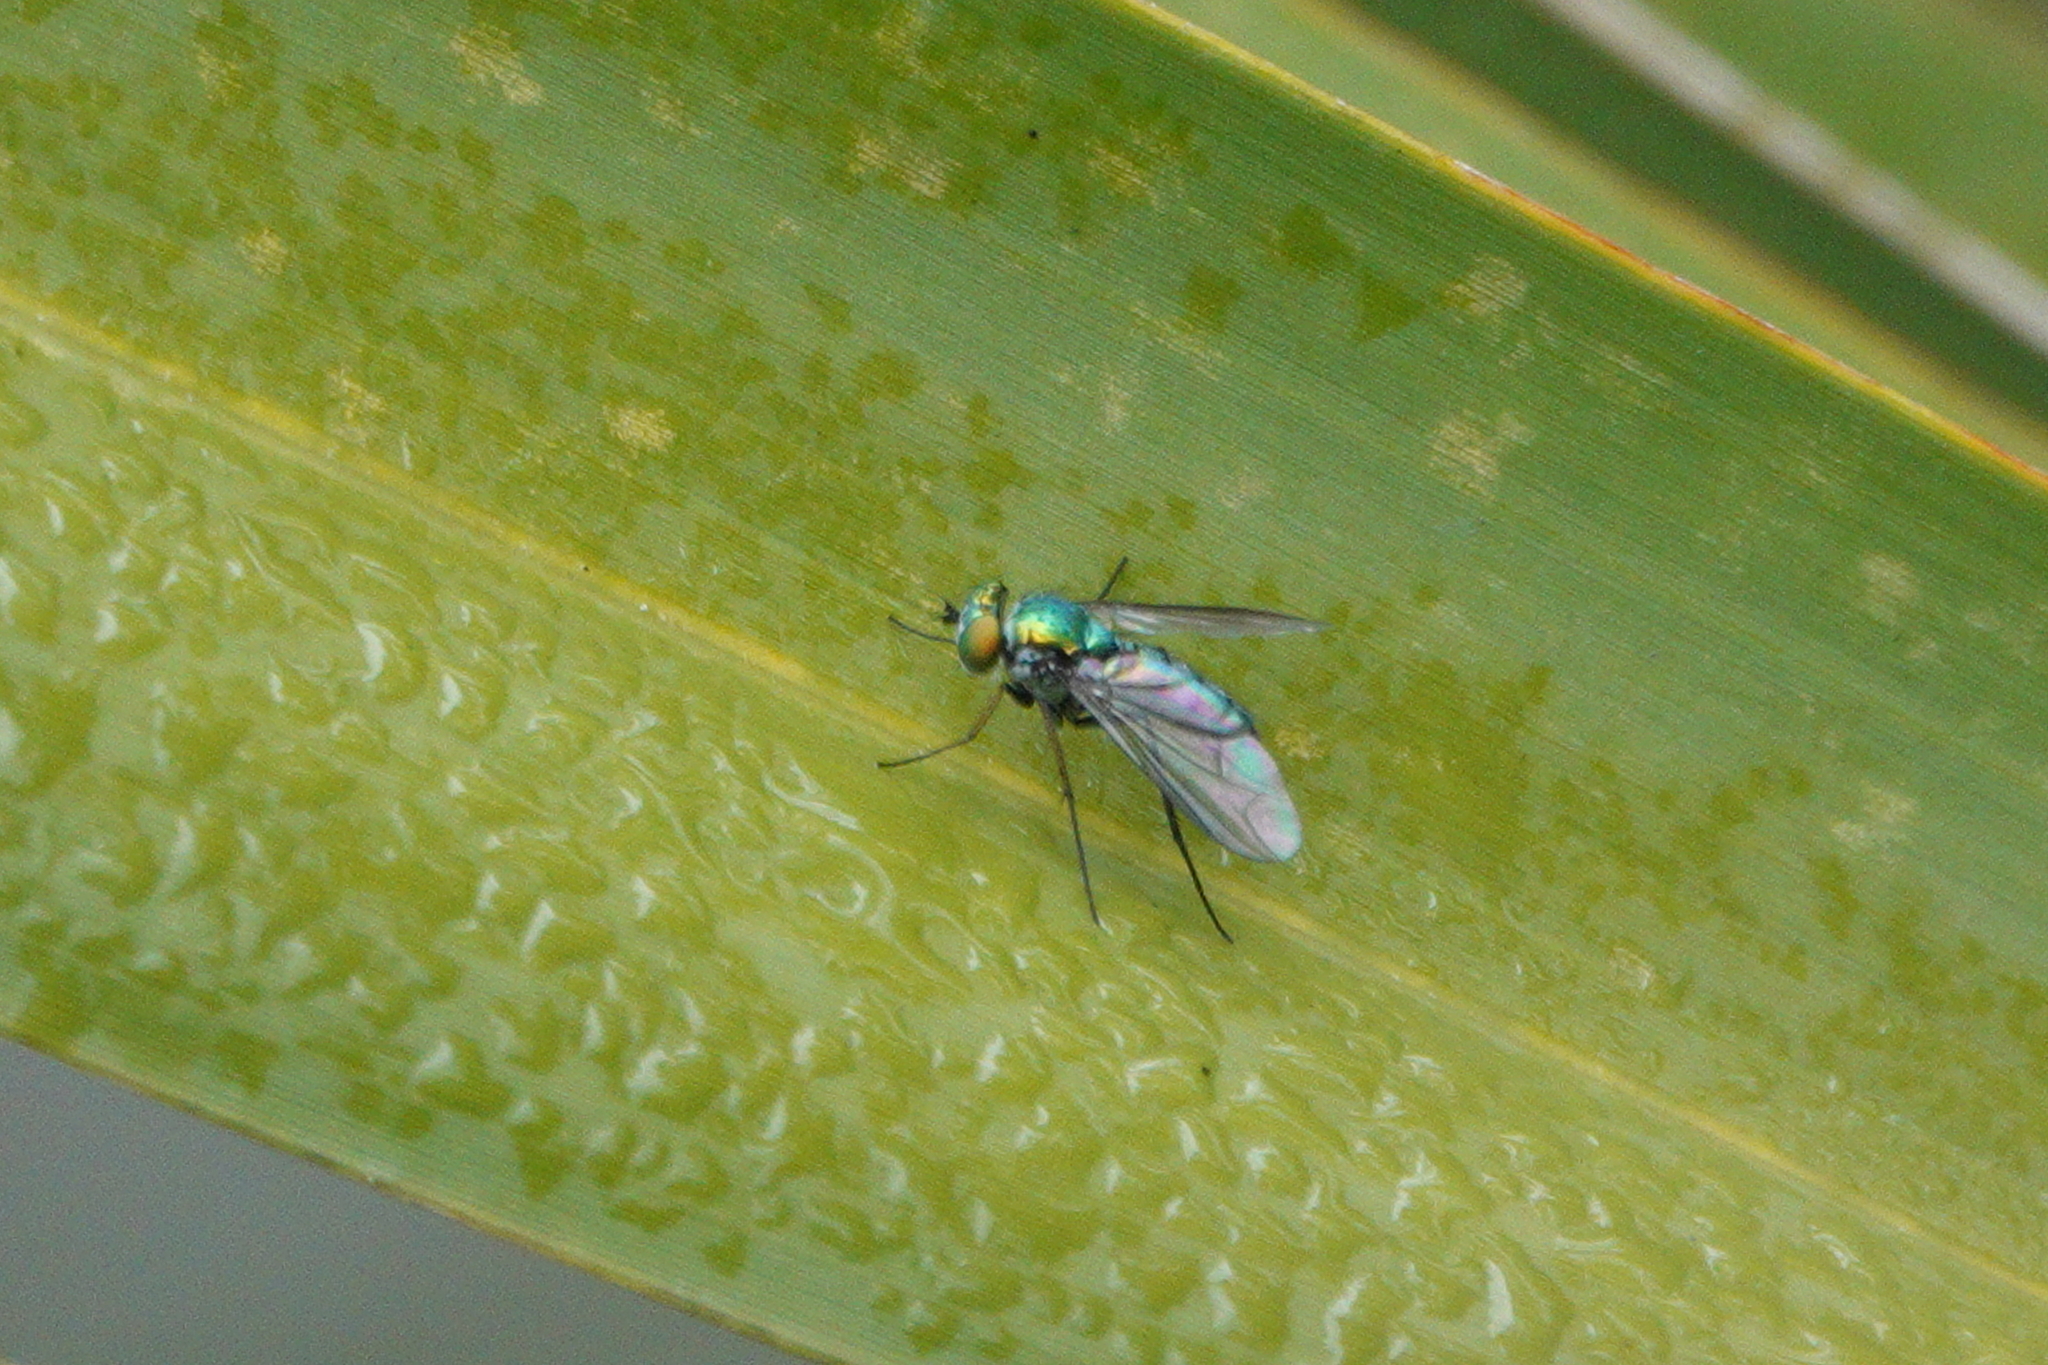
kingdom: Animalia
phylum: Arthropoda
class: Insecta
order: Diptera
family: Dolichopodidae
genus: Condylostylus
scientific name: Condylostylus longicornis
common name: Long-legged fly
